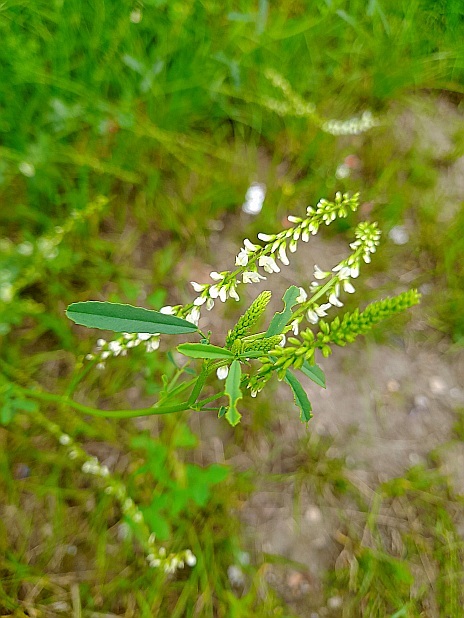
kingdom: Plantae
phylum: Tracheophyta
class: Magnoliopsida
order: Fabales
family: Fabaceae
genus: Melilotus
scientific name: Melilotus albus
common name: White melilot
